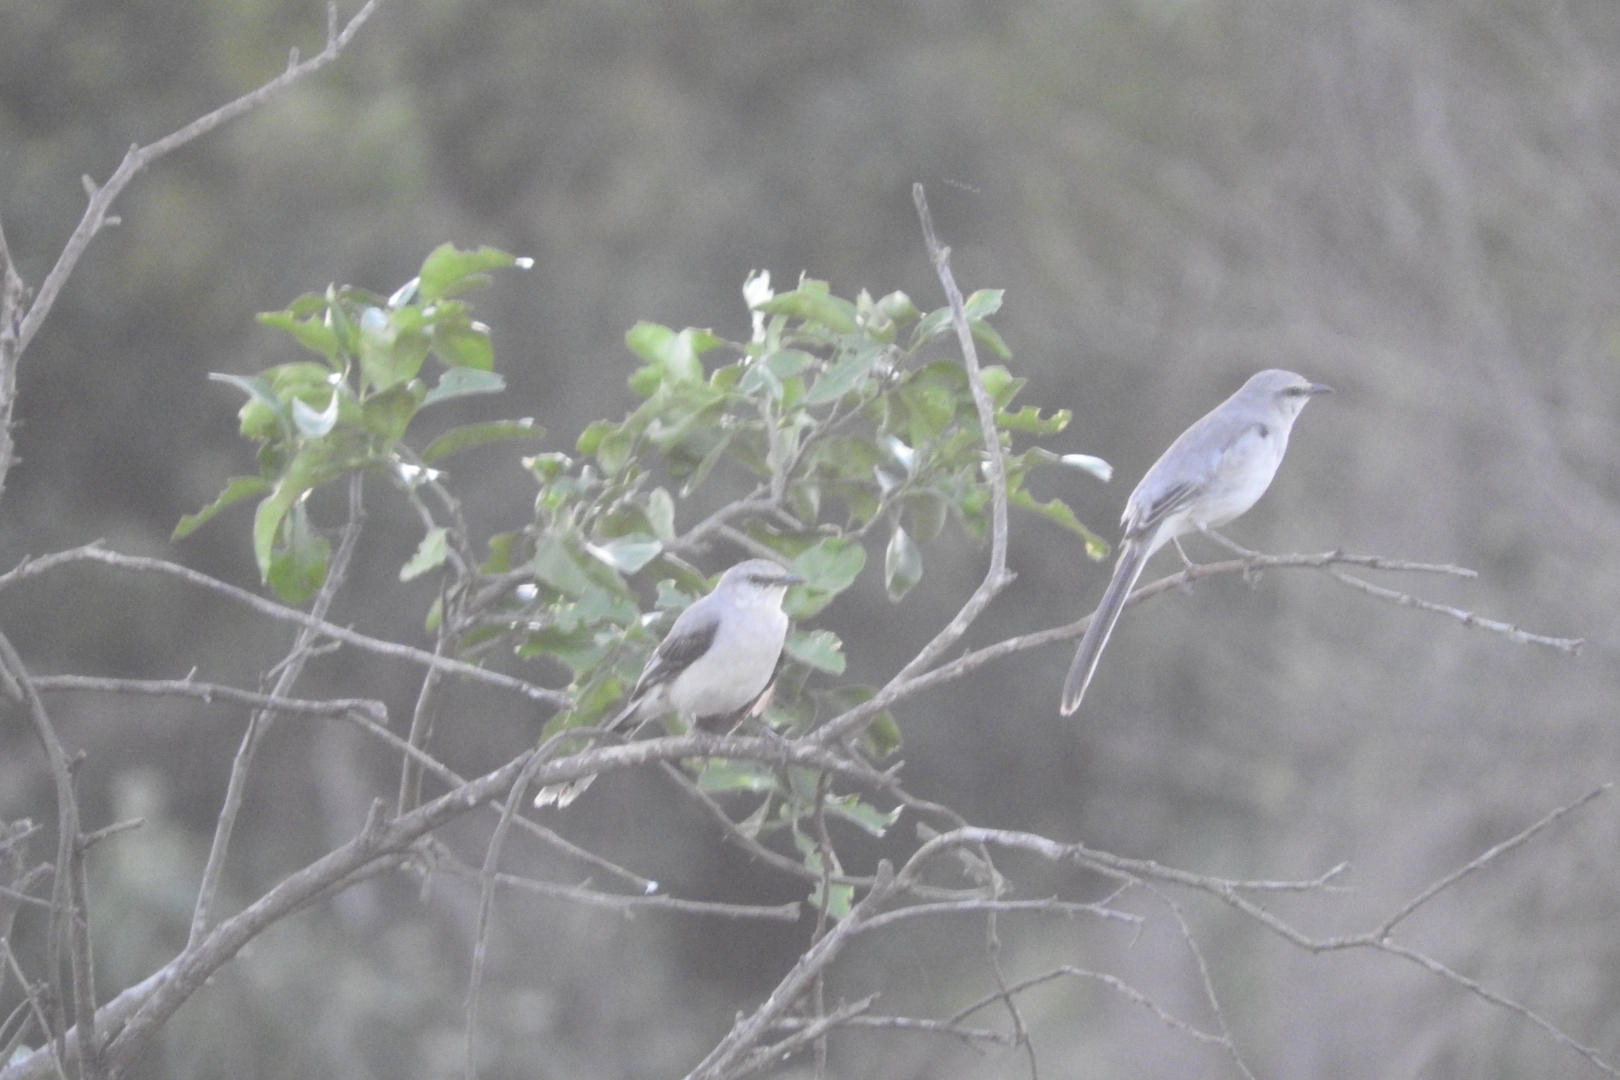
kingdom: Animalia
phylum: Chordata
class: Aves
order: Passeriformes
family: Mimidae
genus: Mimus
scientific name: Mimus gilvus
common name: Tropical mockingbird
